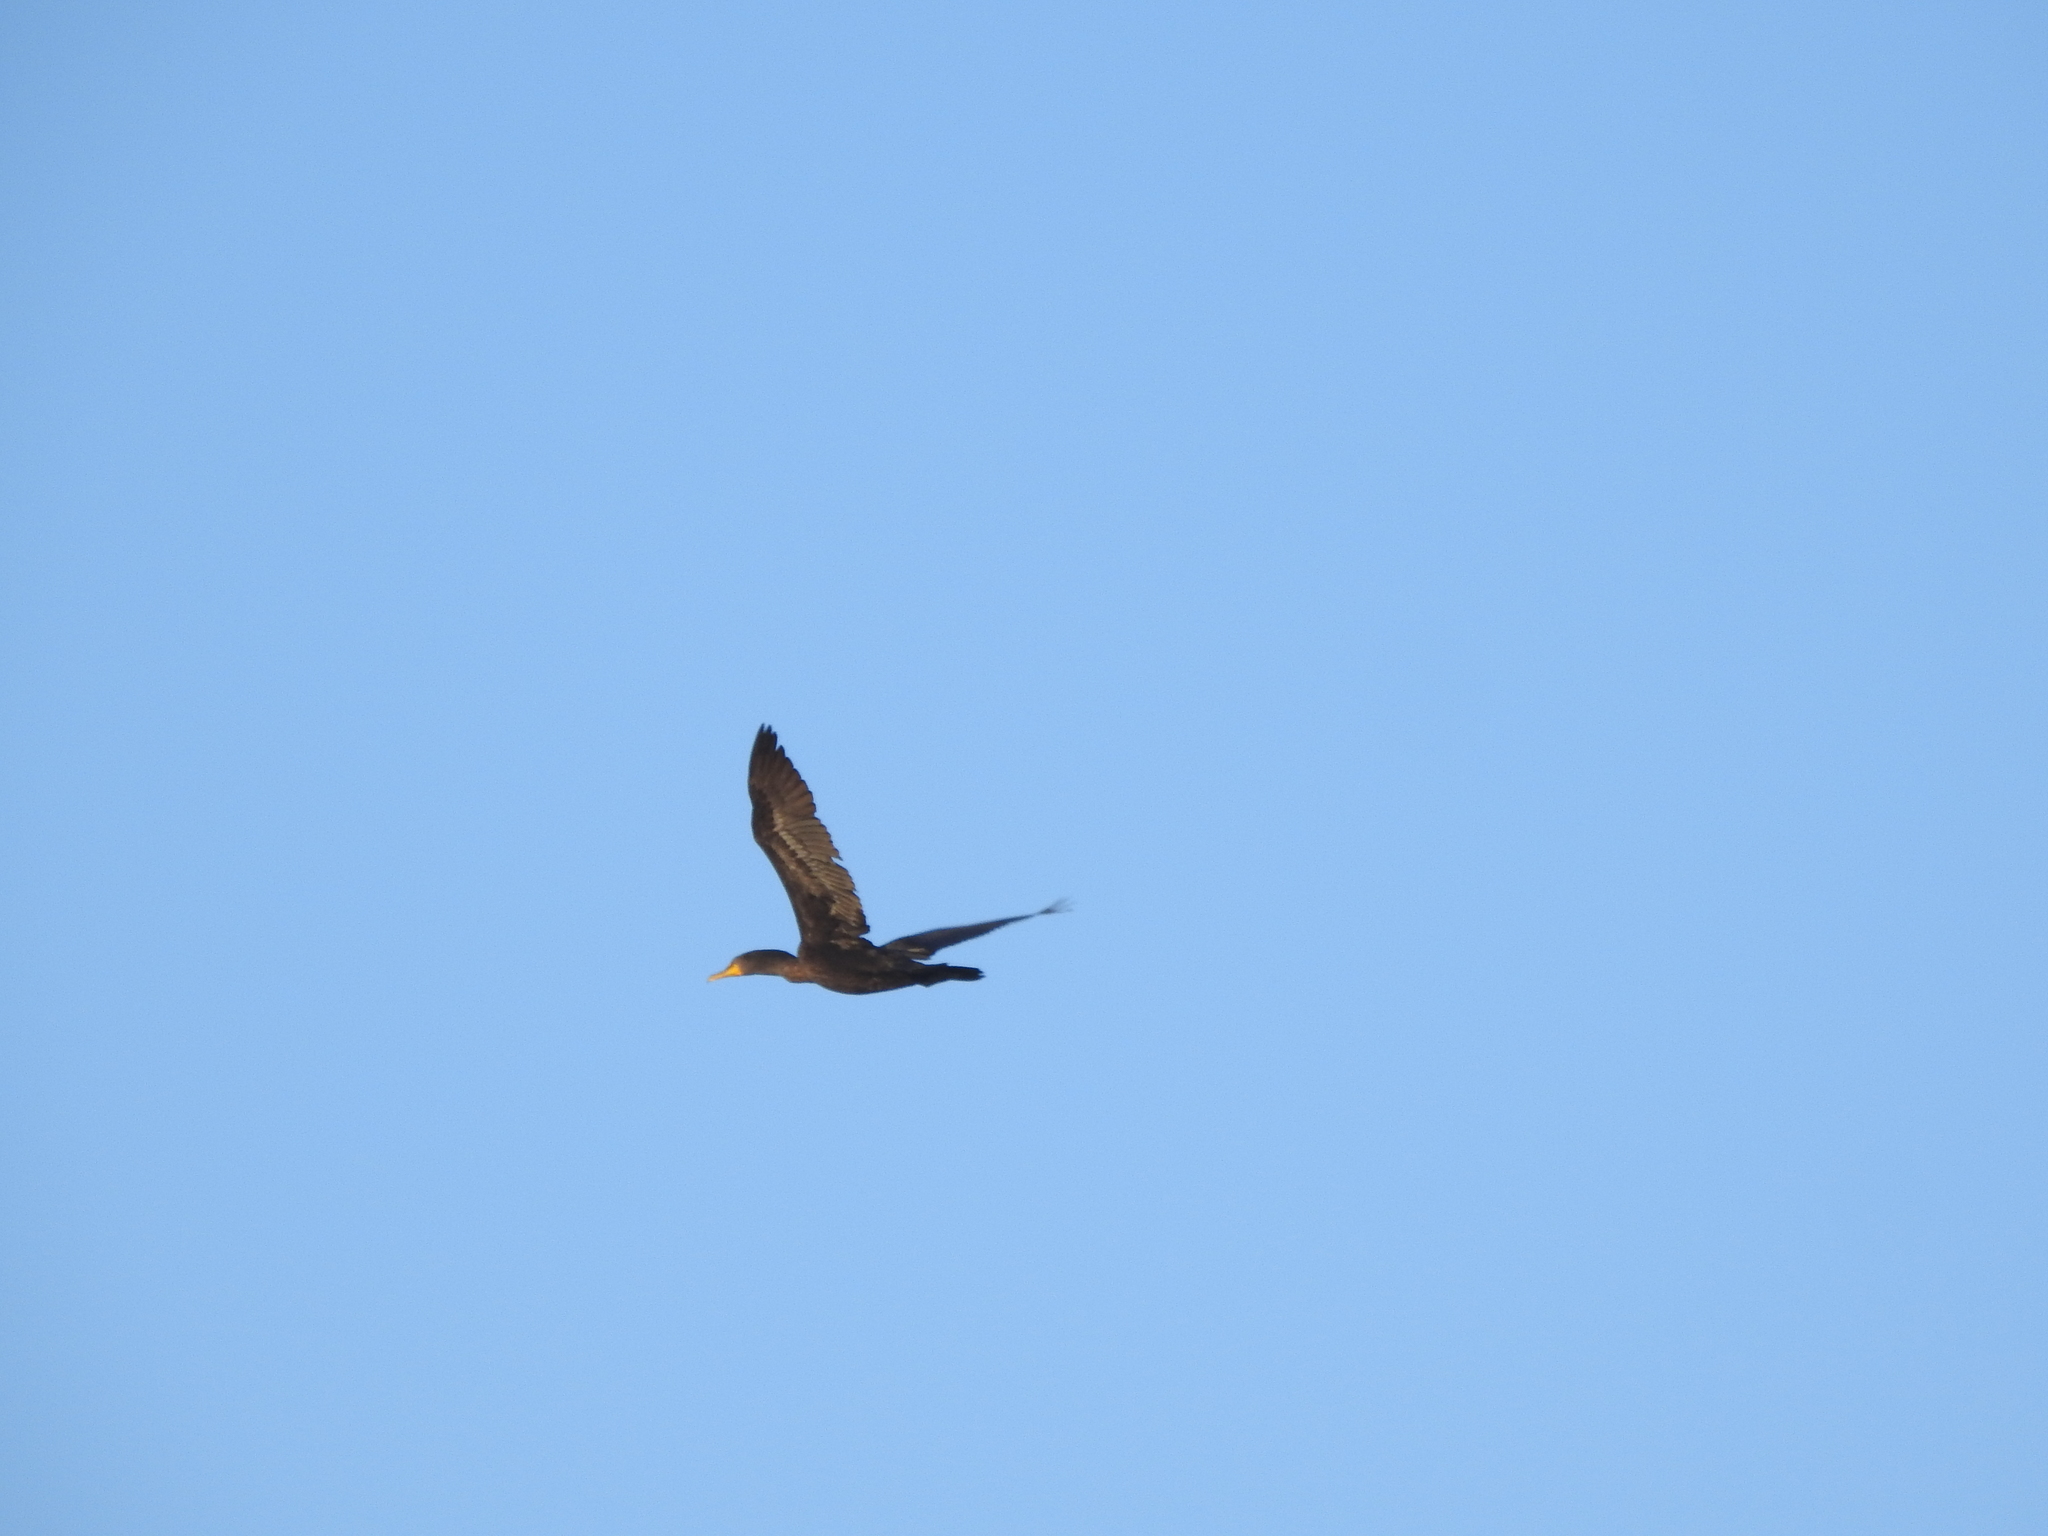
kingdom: Animalia
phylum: Chordata
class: Aves
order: Suliformes
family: Phalacrocoracidae
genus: Phalacrocorax
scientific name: Phalacrocorax auritus
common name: Double-crested cormorant
